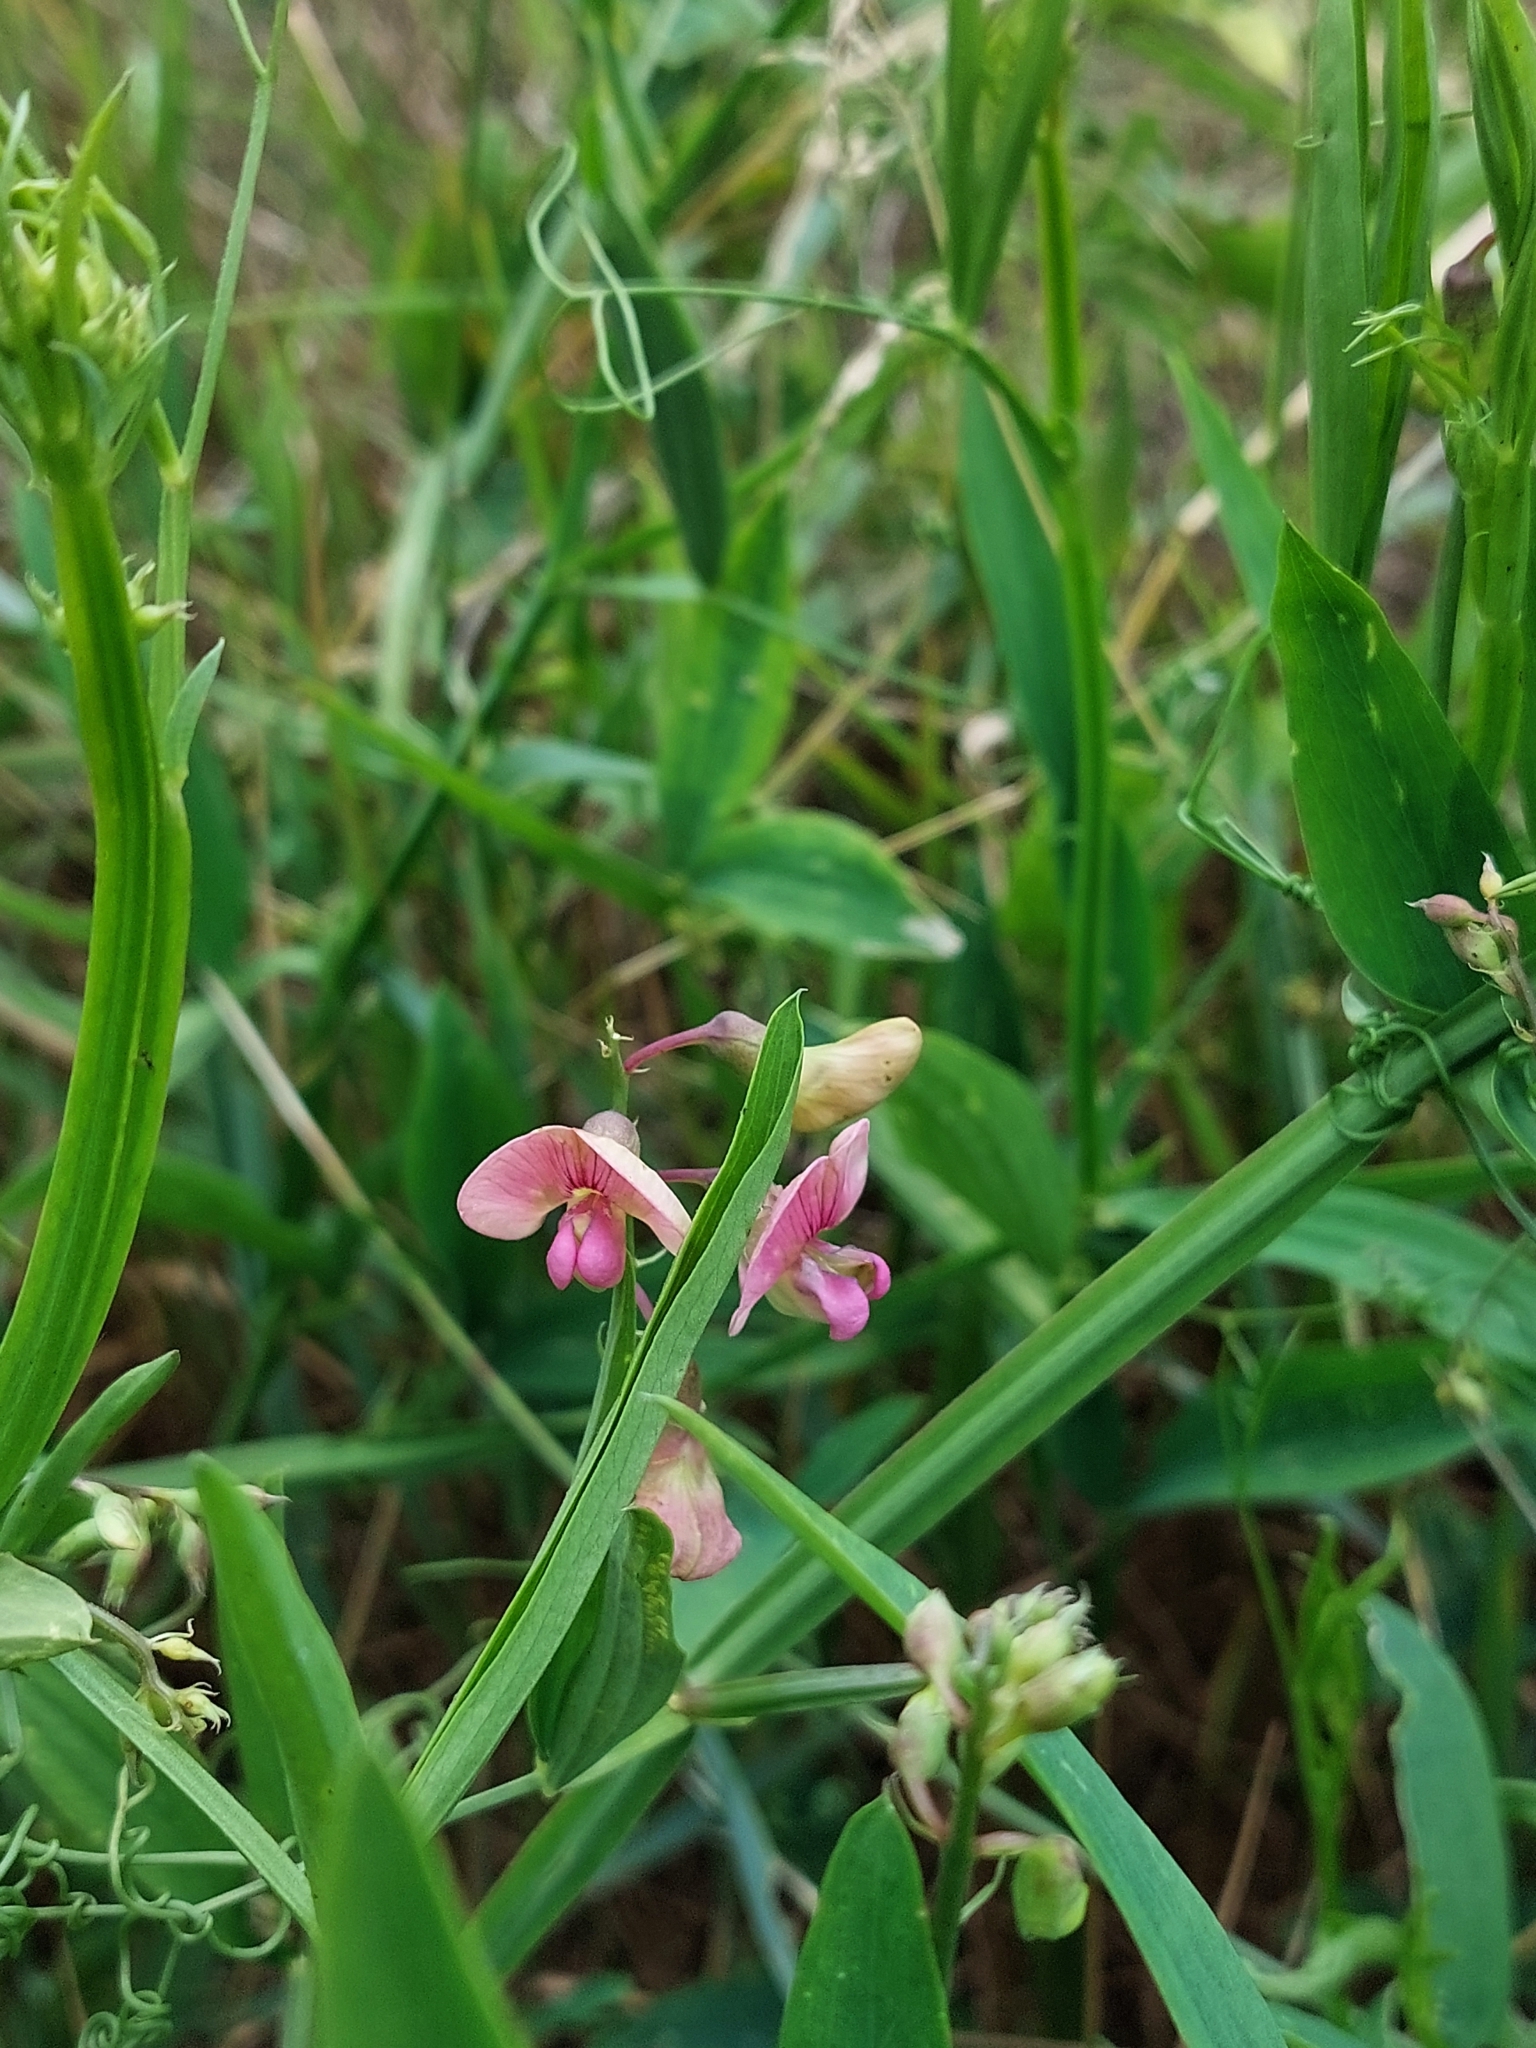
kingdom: Plantae
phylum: Tracheophyta
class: Magnoliopsida
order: Fabales
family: Fabaceae
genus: Lathyrus
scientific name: Lathyrus sylvestris
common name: Flat pea
